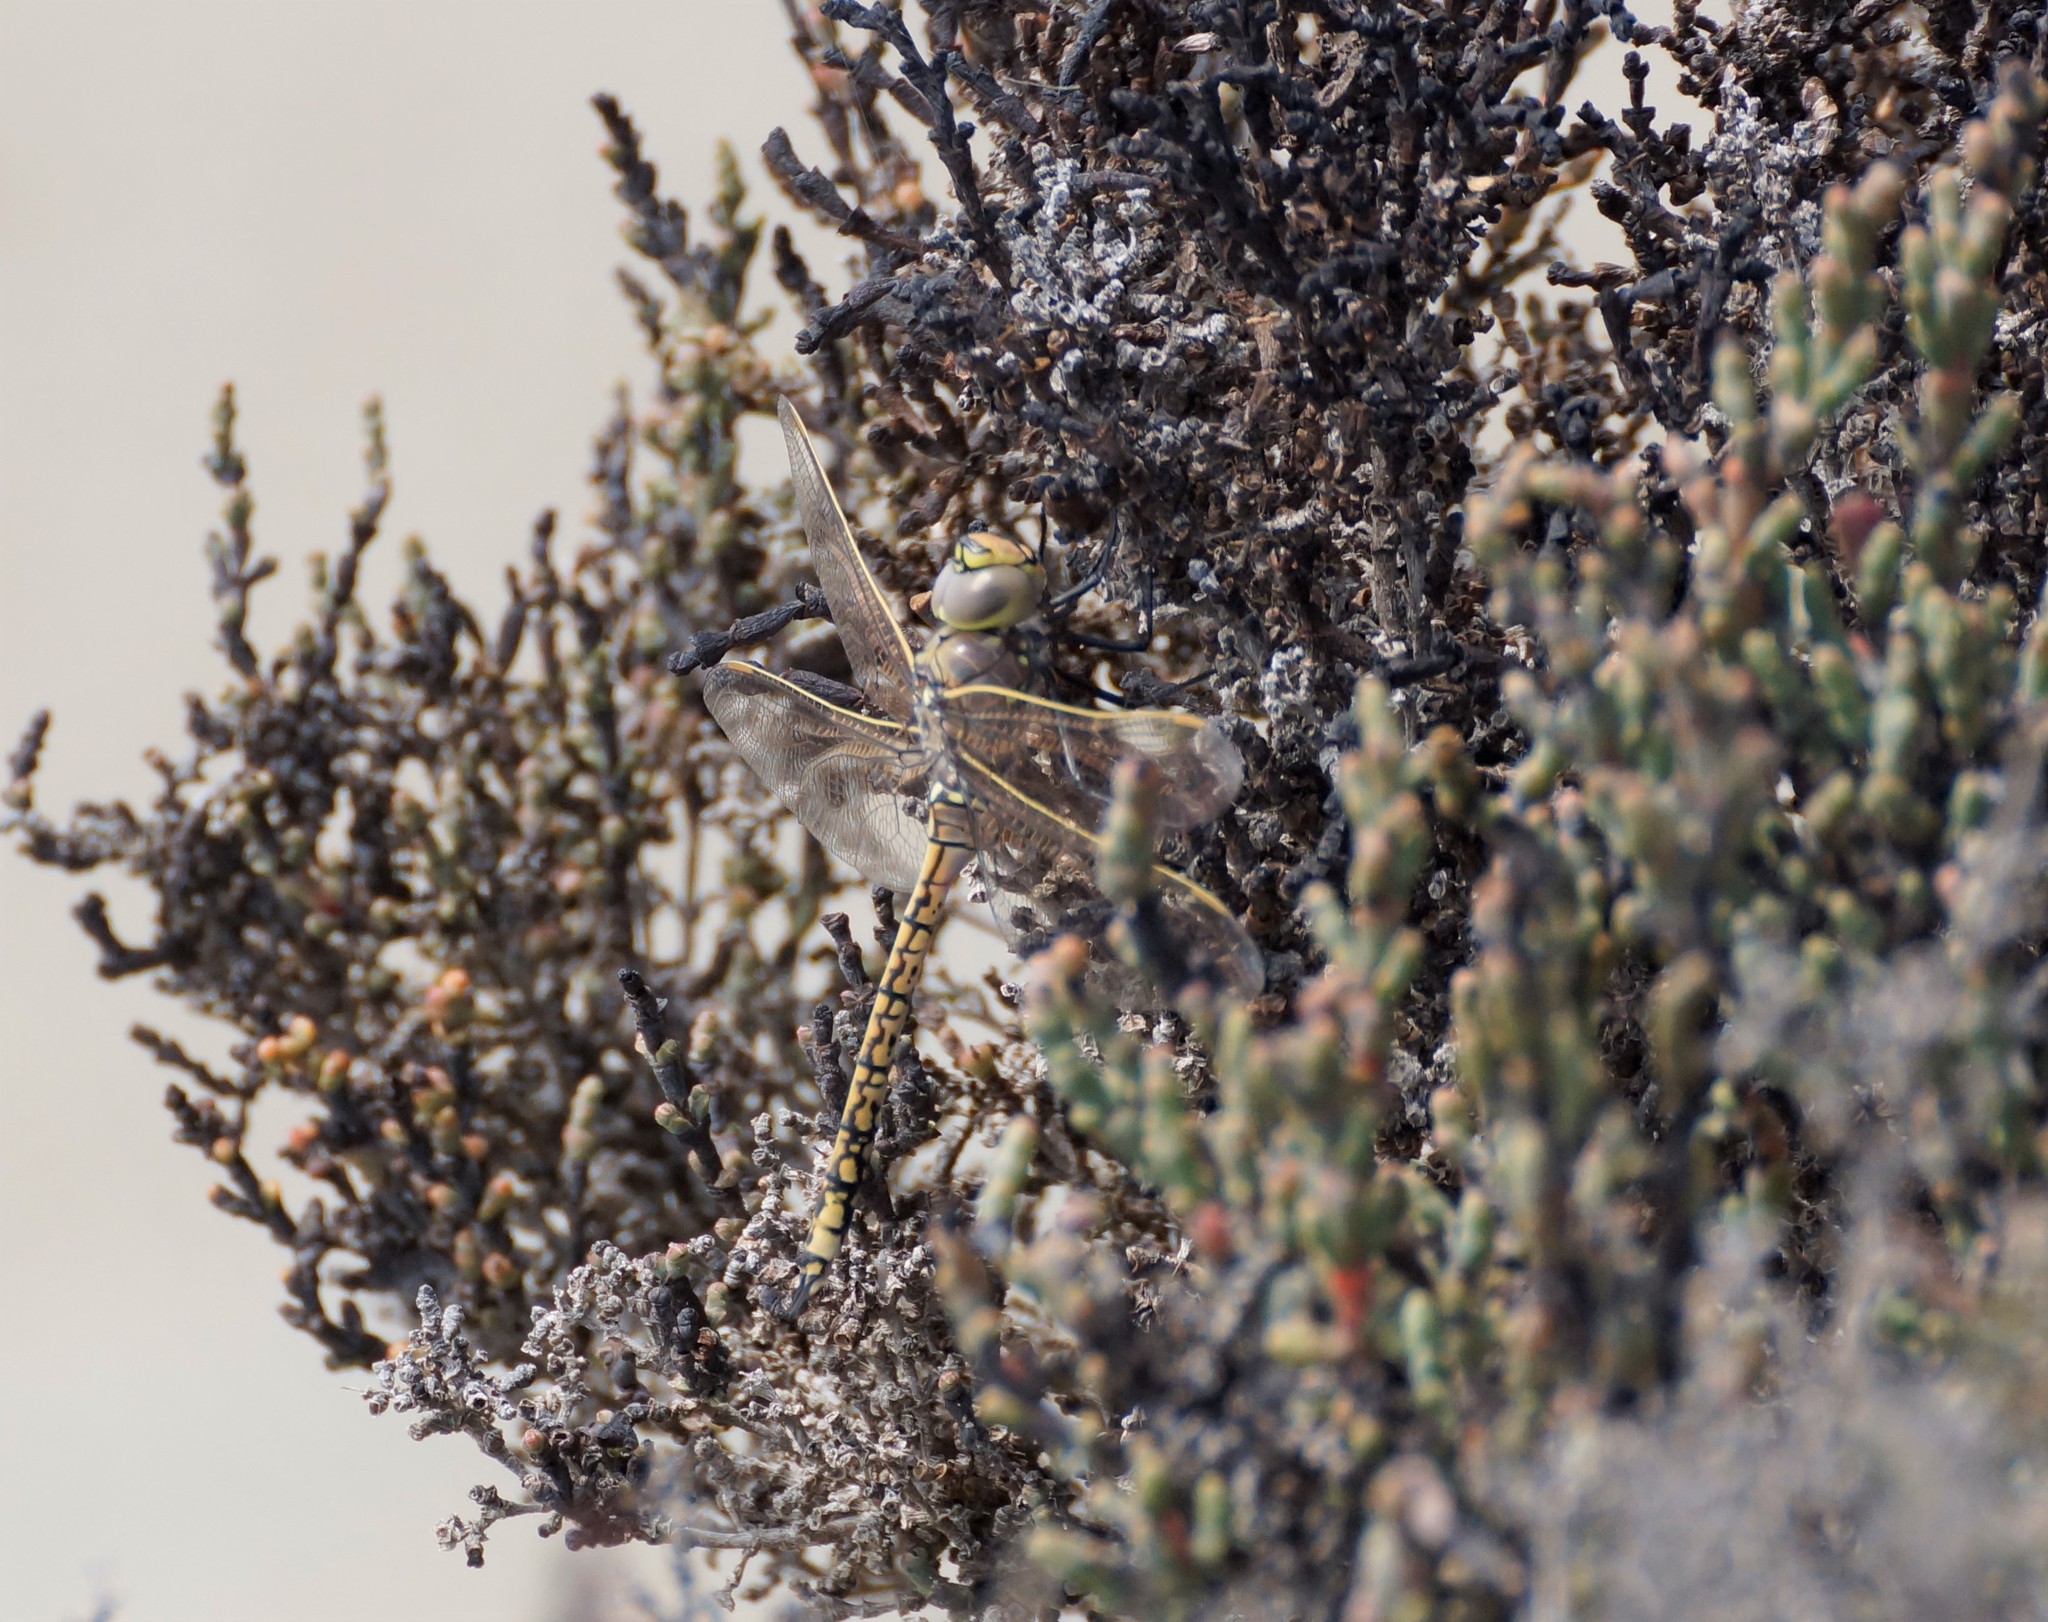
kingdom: Animalia
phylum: Arthropoda
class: Insecta
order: Odonata
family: Aeshnidae
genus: Anax
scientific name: Anax papuensis
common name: Australian emperor
